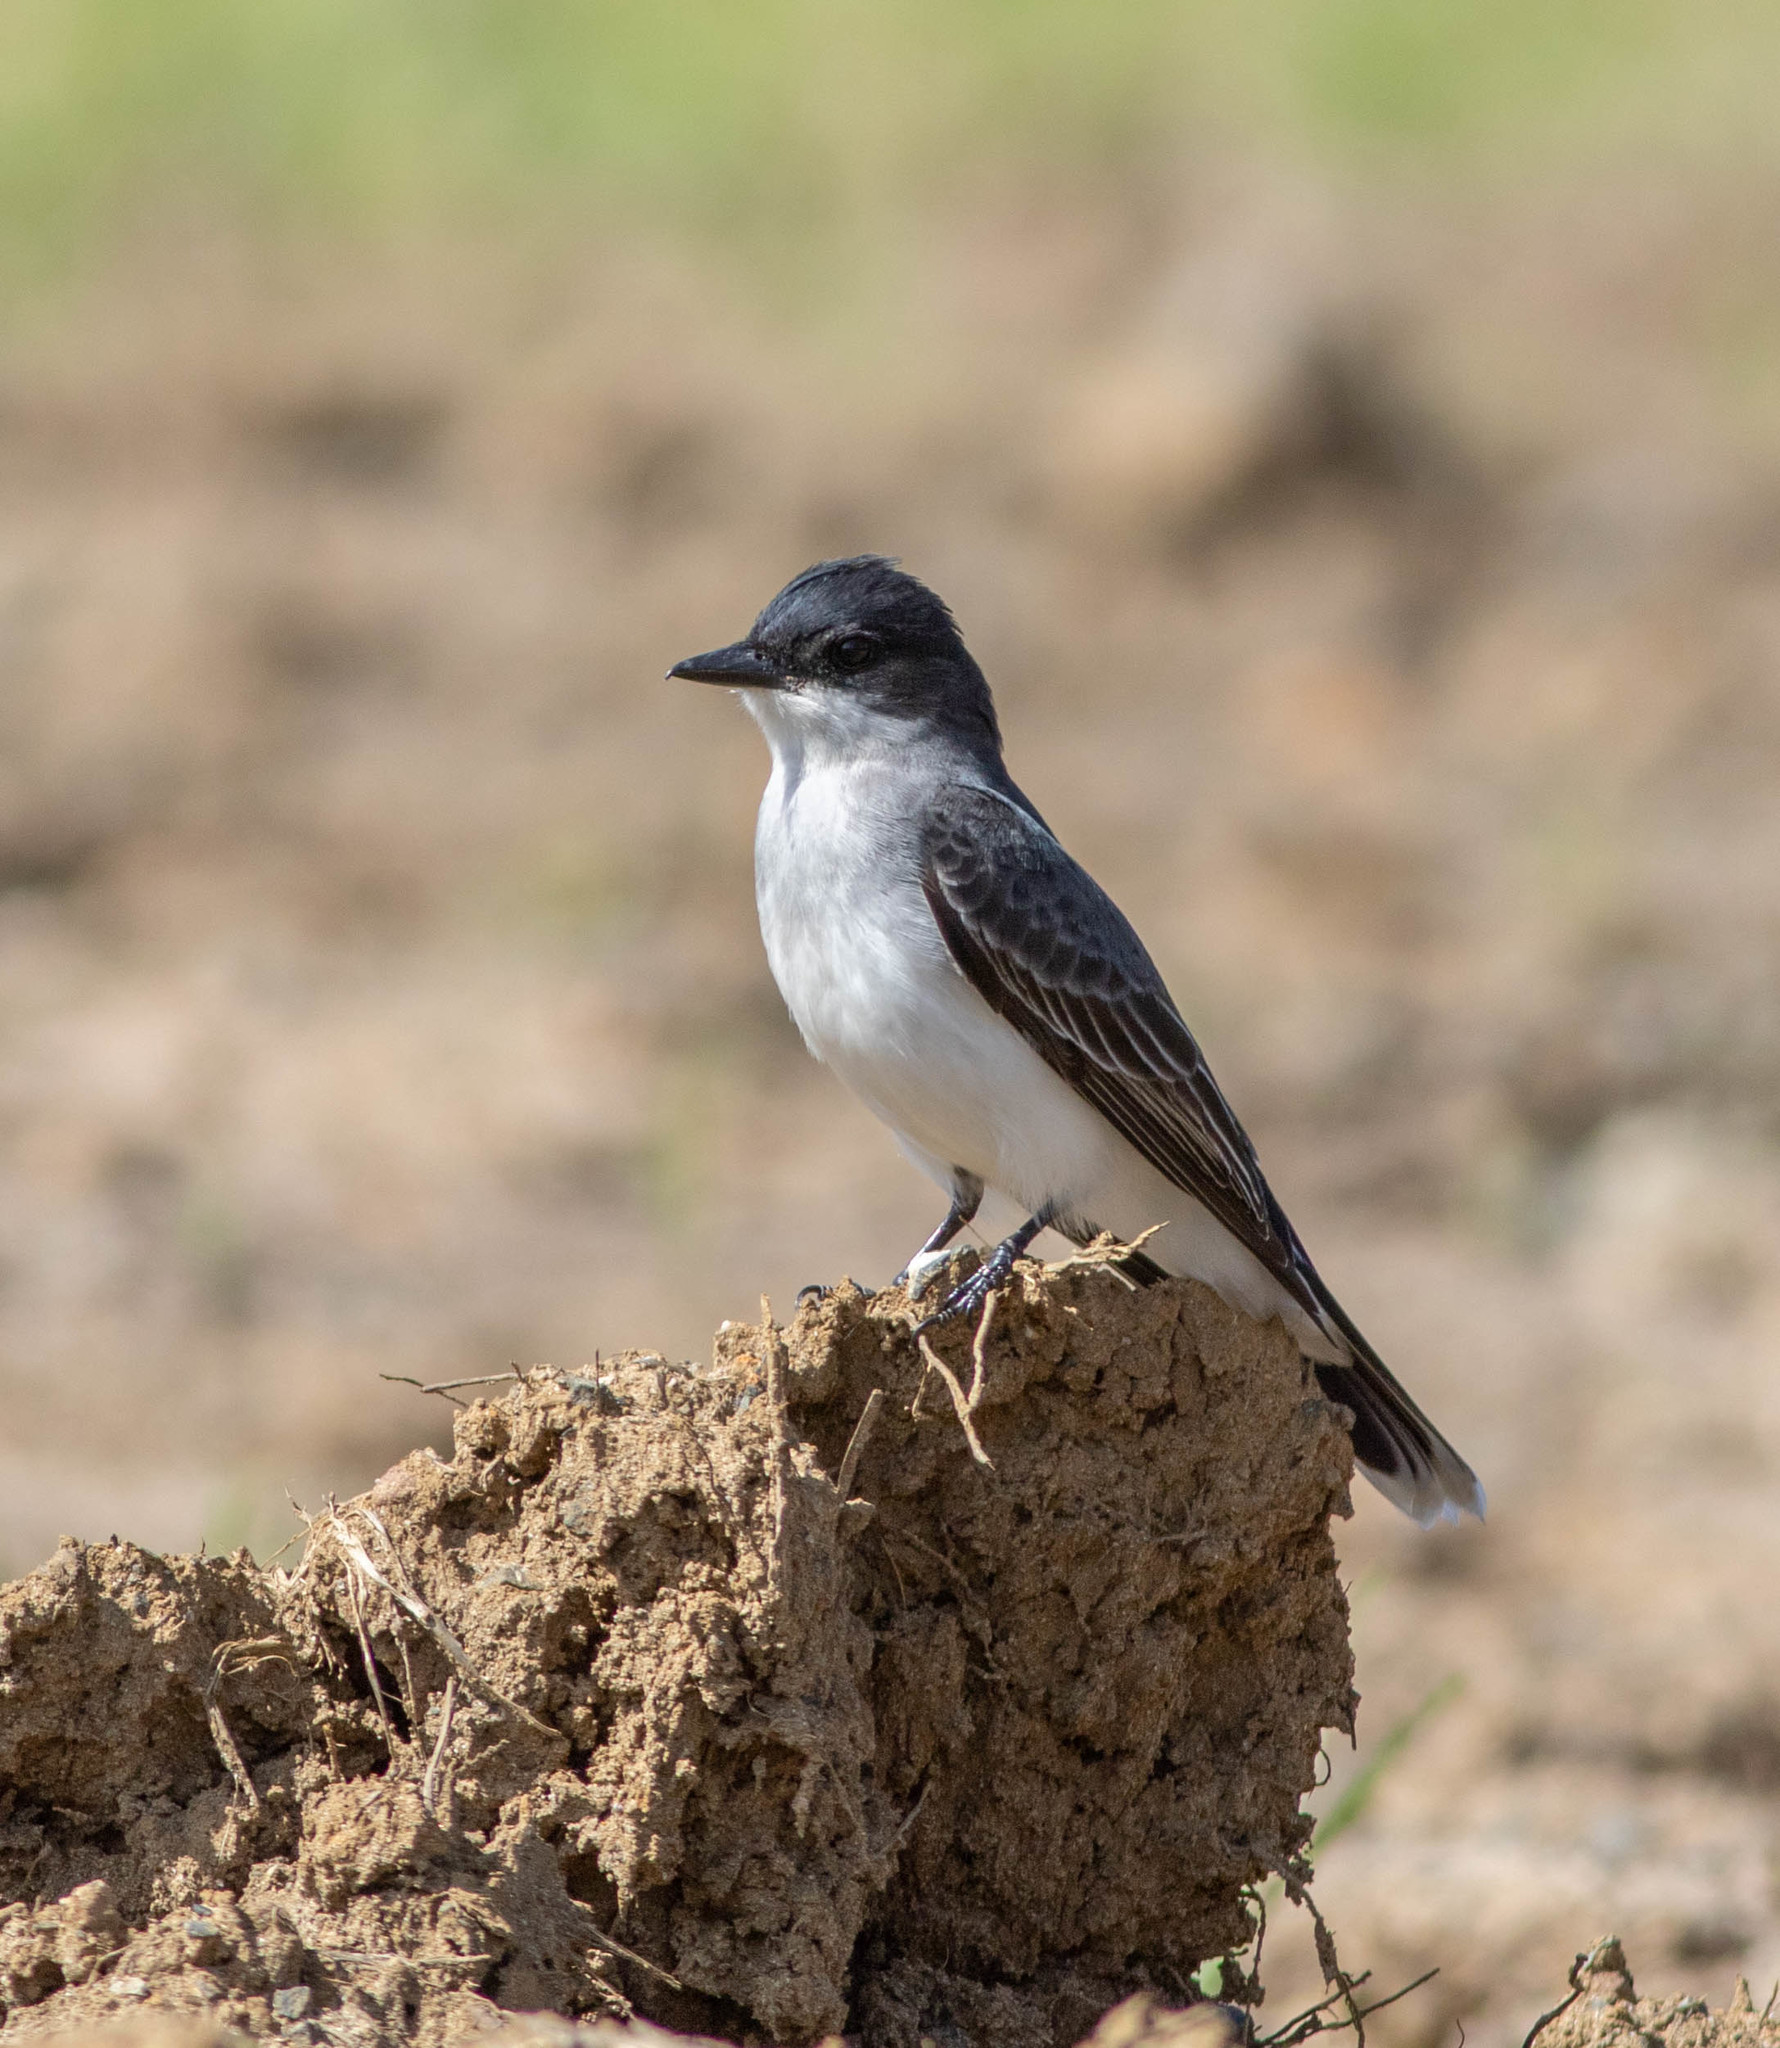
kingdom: Animalia
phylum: Chordata
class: Aves
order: Passeriformes
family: Tyrannidae
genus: Tyrannus
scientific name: Tyrannus tyrannus
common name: Eastern kingbird
